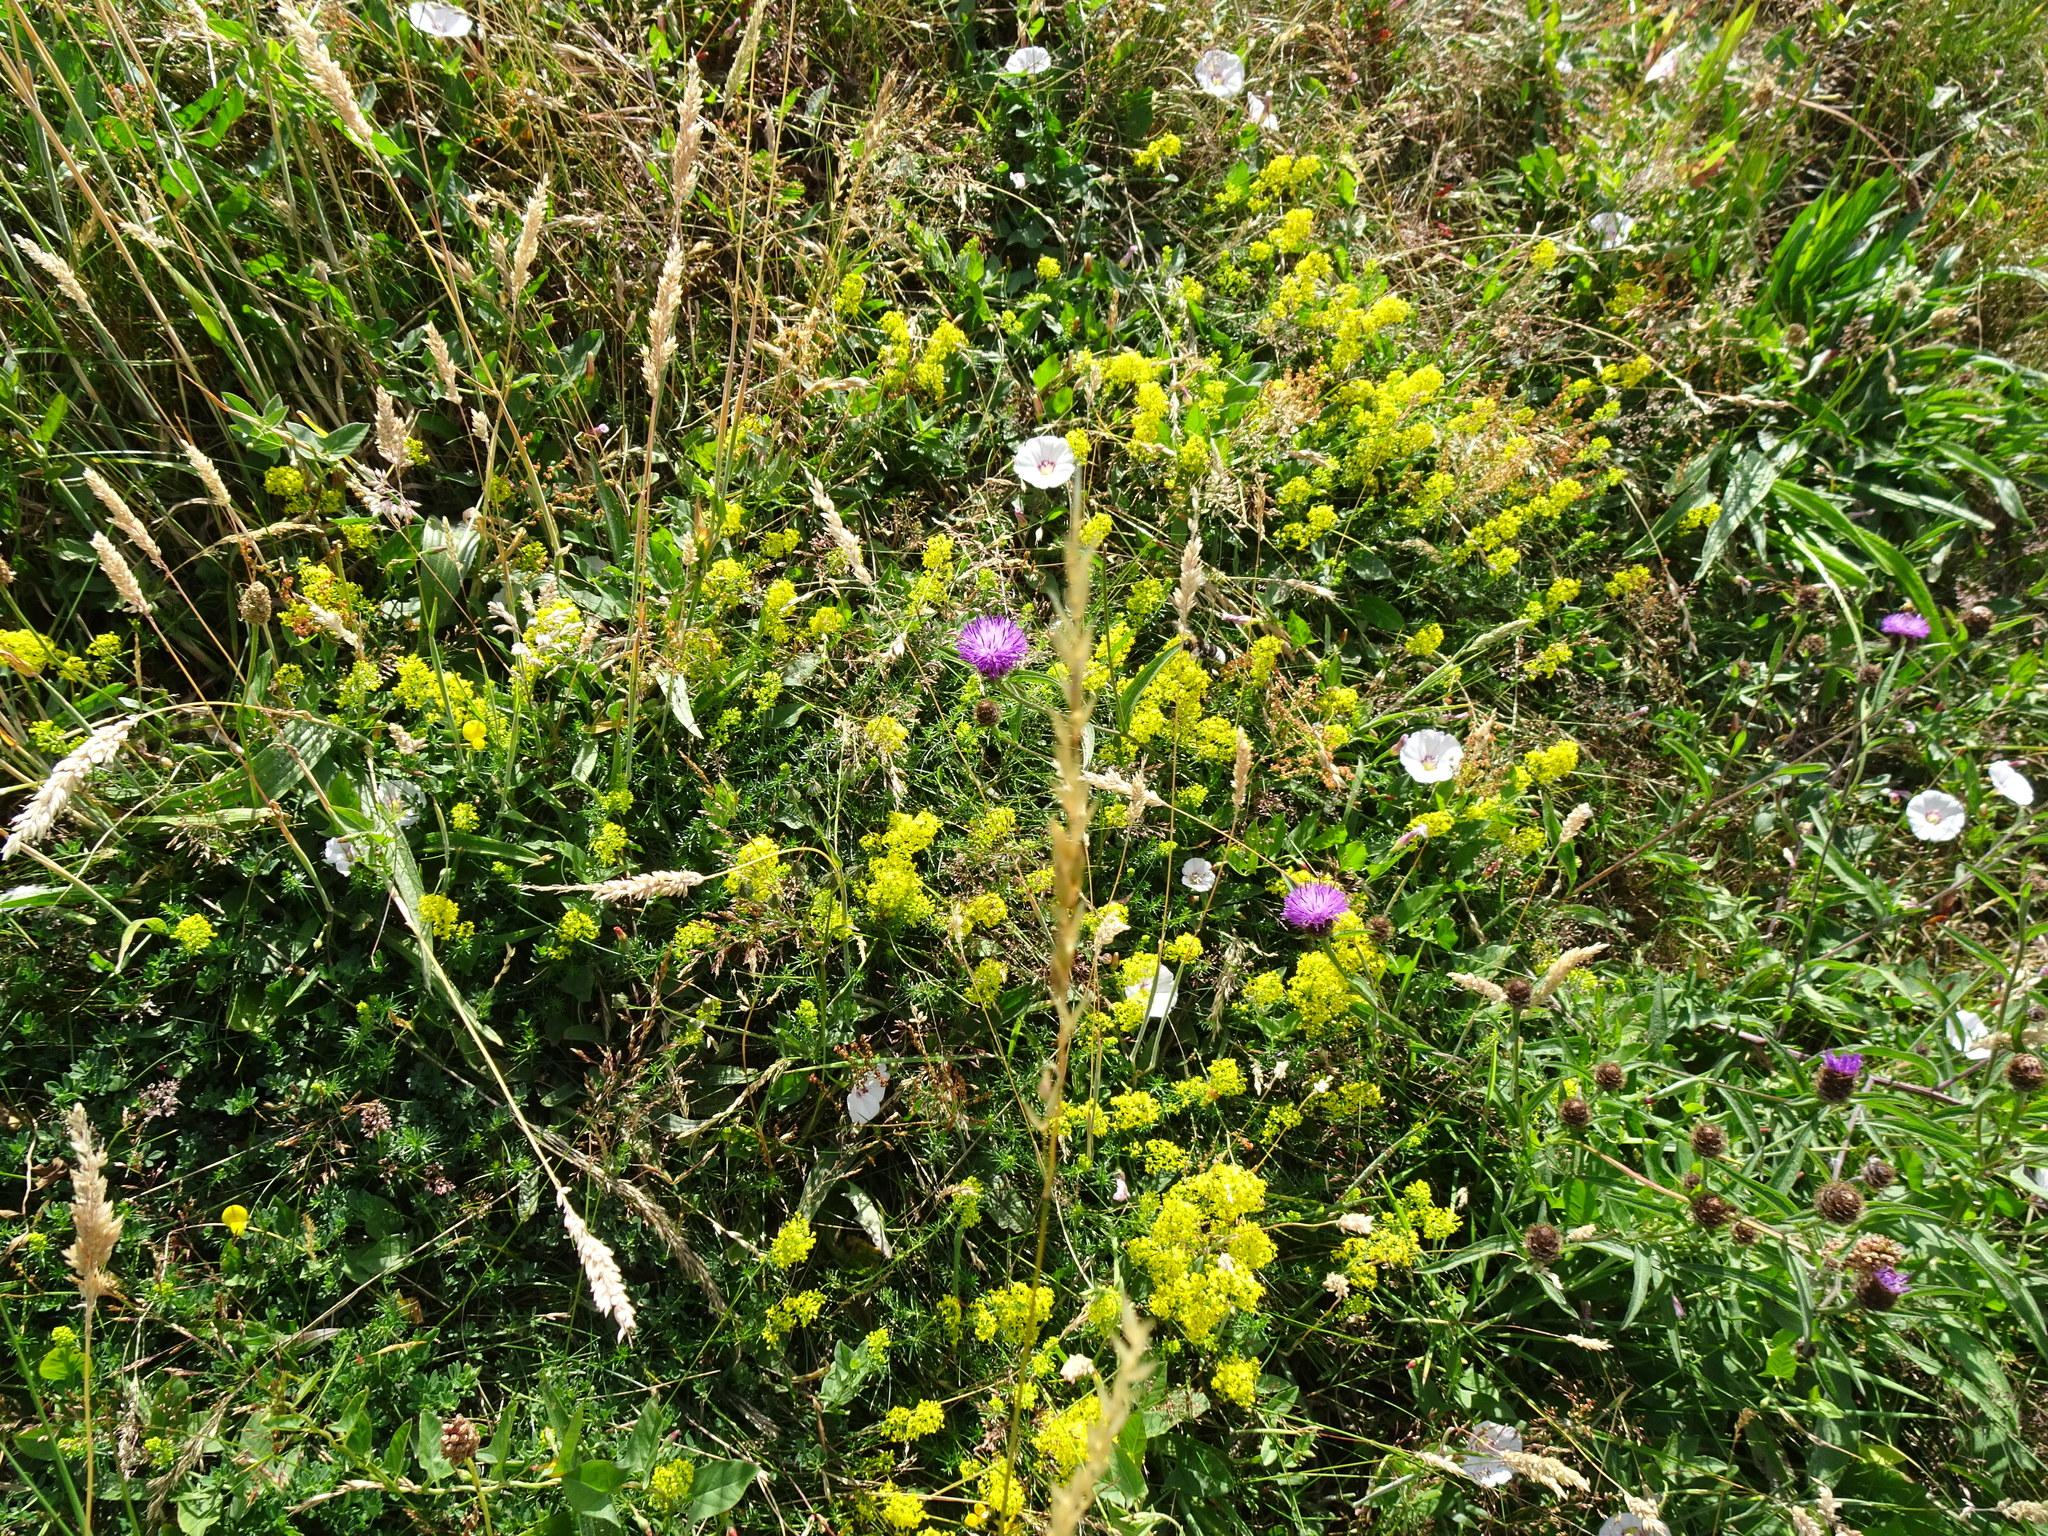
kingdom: Plantae
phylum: Tracheophyta
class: Magnoliopsida
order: Gentianales
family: Rubiaceae
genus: Galium
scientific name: Galium verum
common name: Lady's bedstraw
